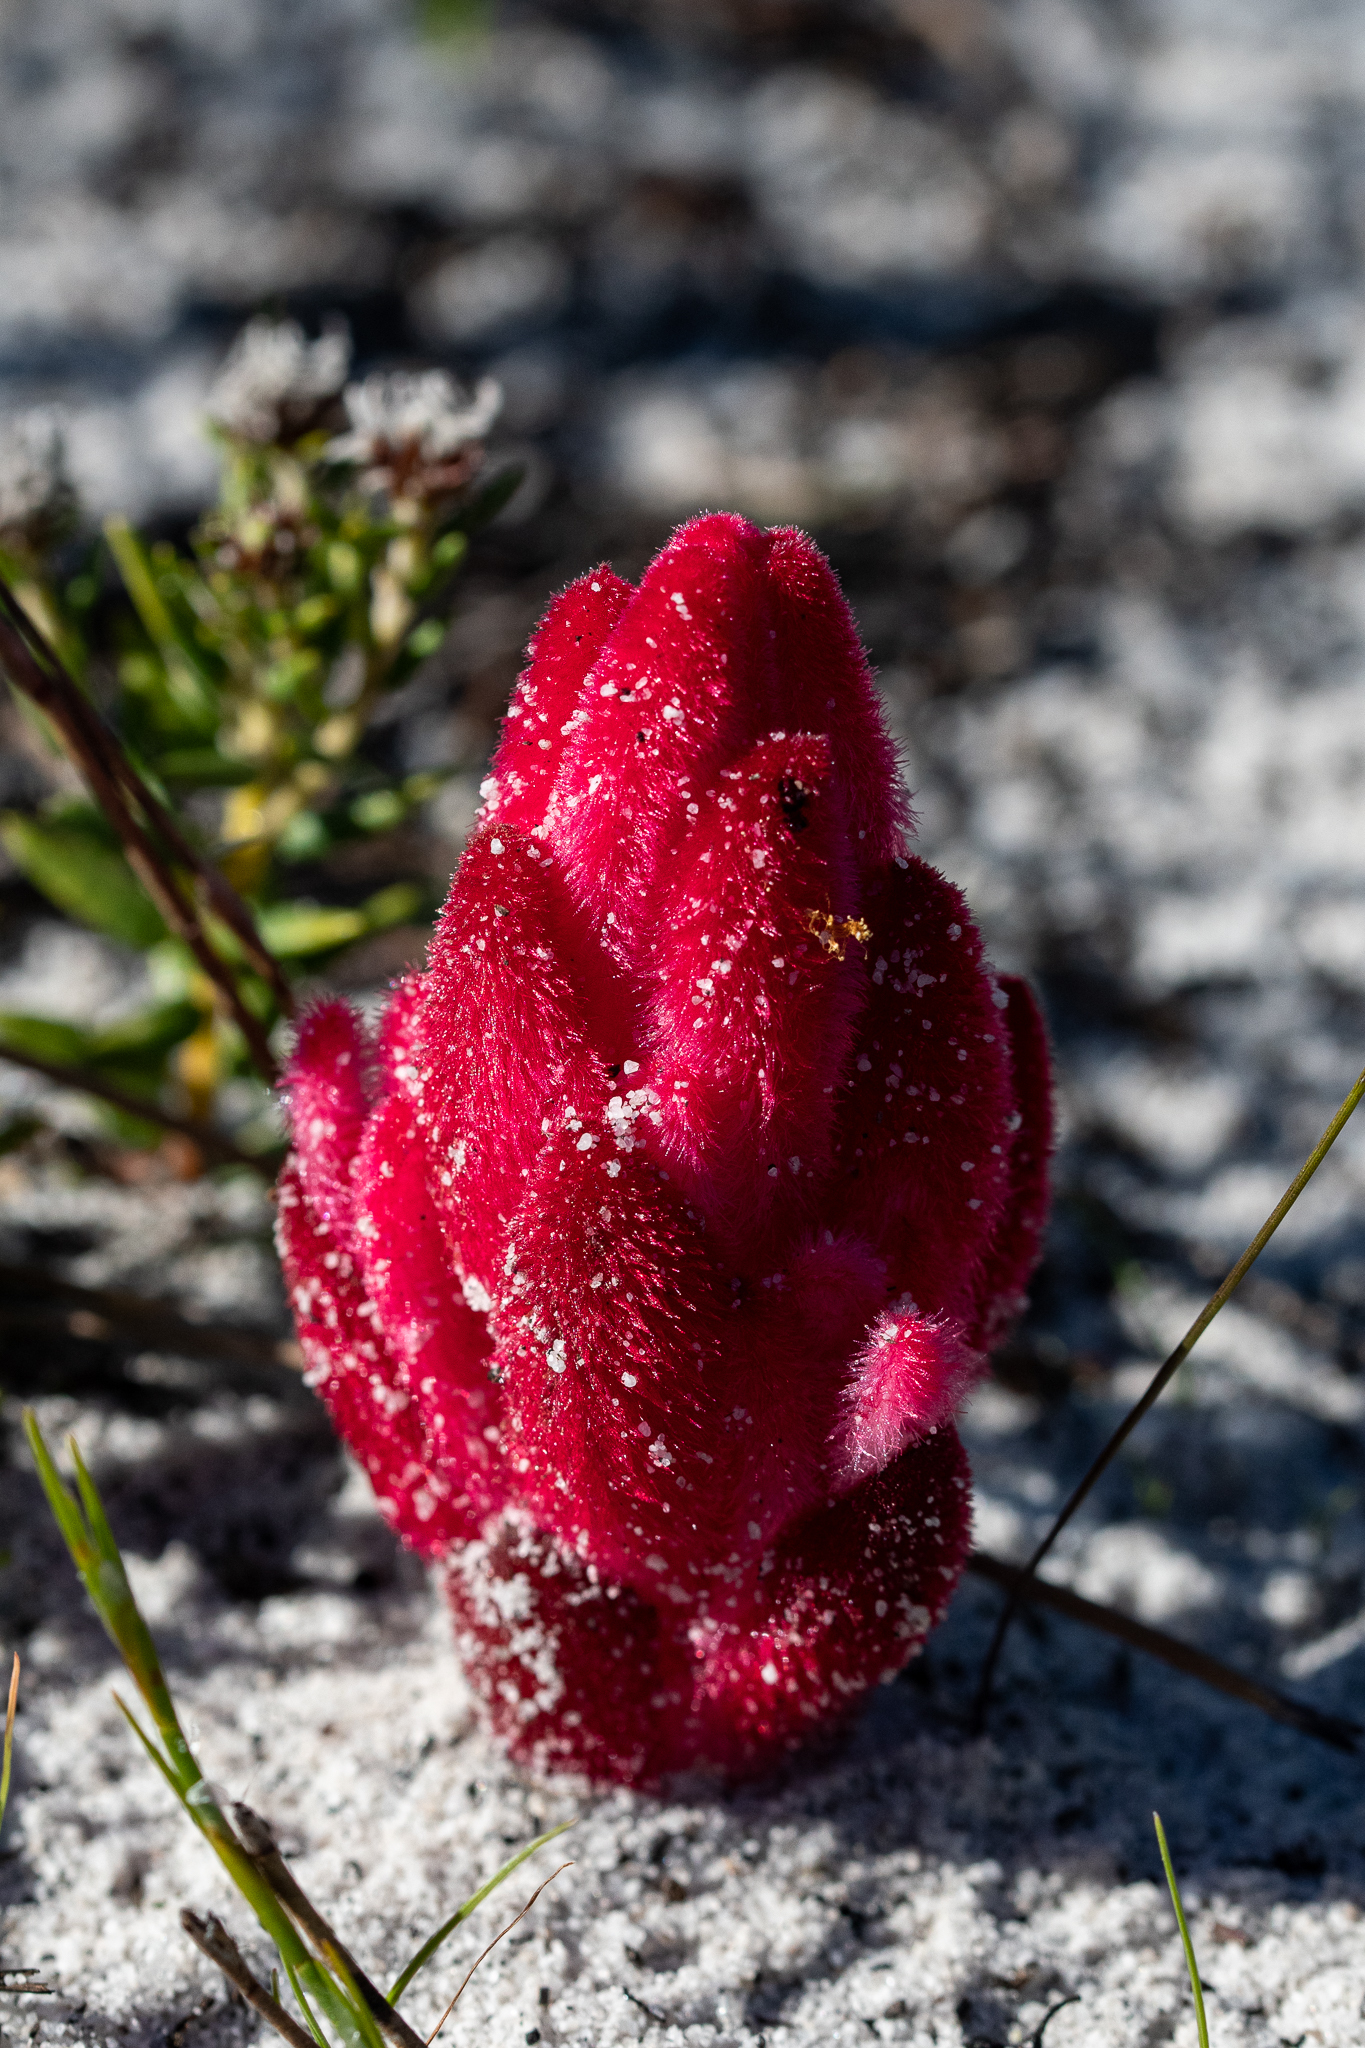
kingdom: Plantae
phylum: Tracheophyta
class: Magnoliopsida
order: Lamiales
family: Orobanchaceae
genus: Hyobanche
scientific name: Hyobanche sanguinea
